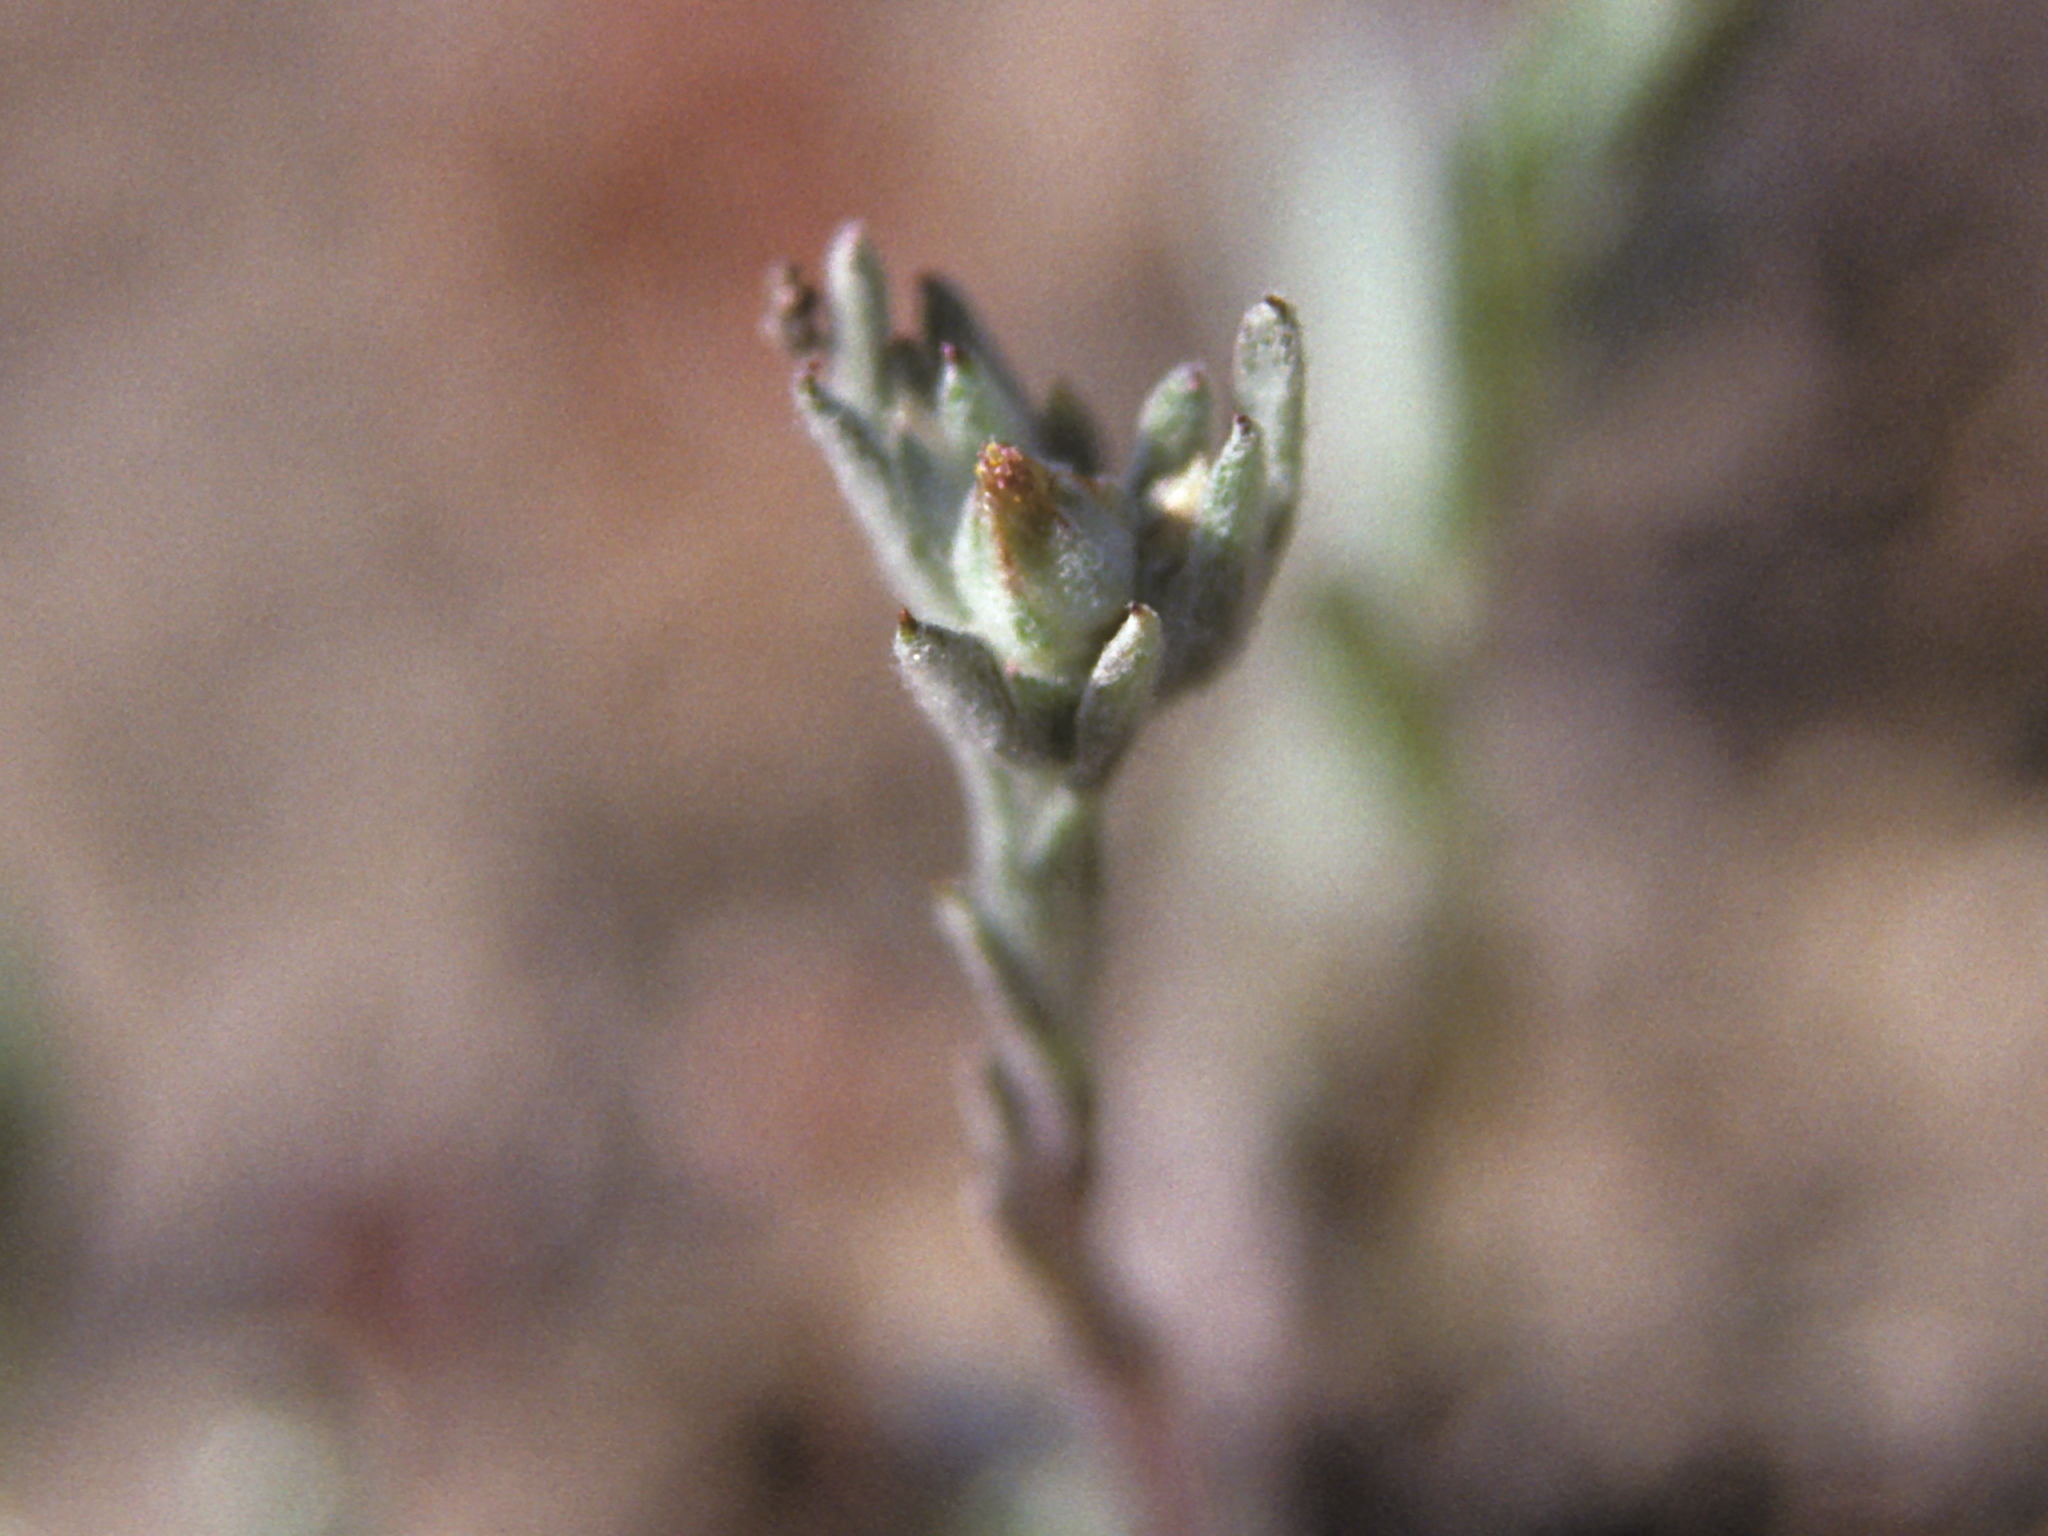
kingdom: Plantae
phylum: Tracheophyta
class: Magnoliopsida
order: Asterales
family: Asteraceae
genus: Logfia
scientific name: Logfia californica
